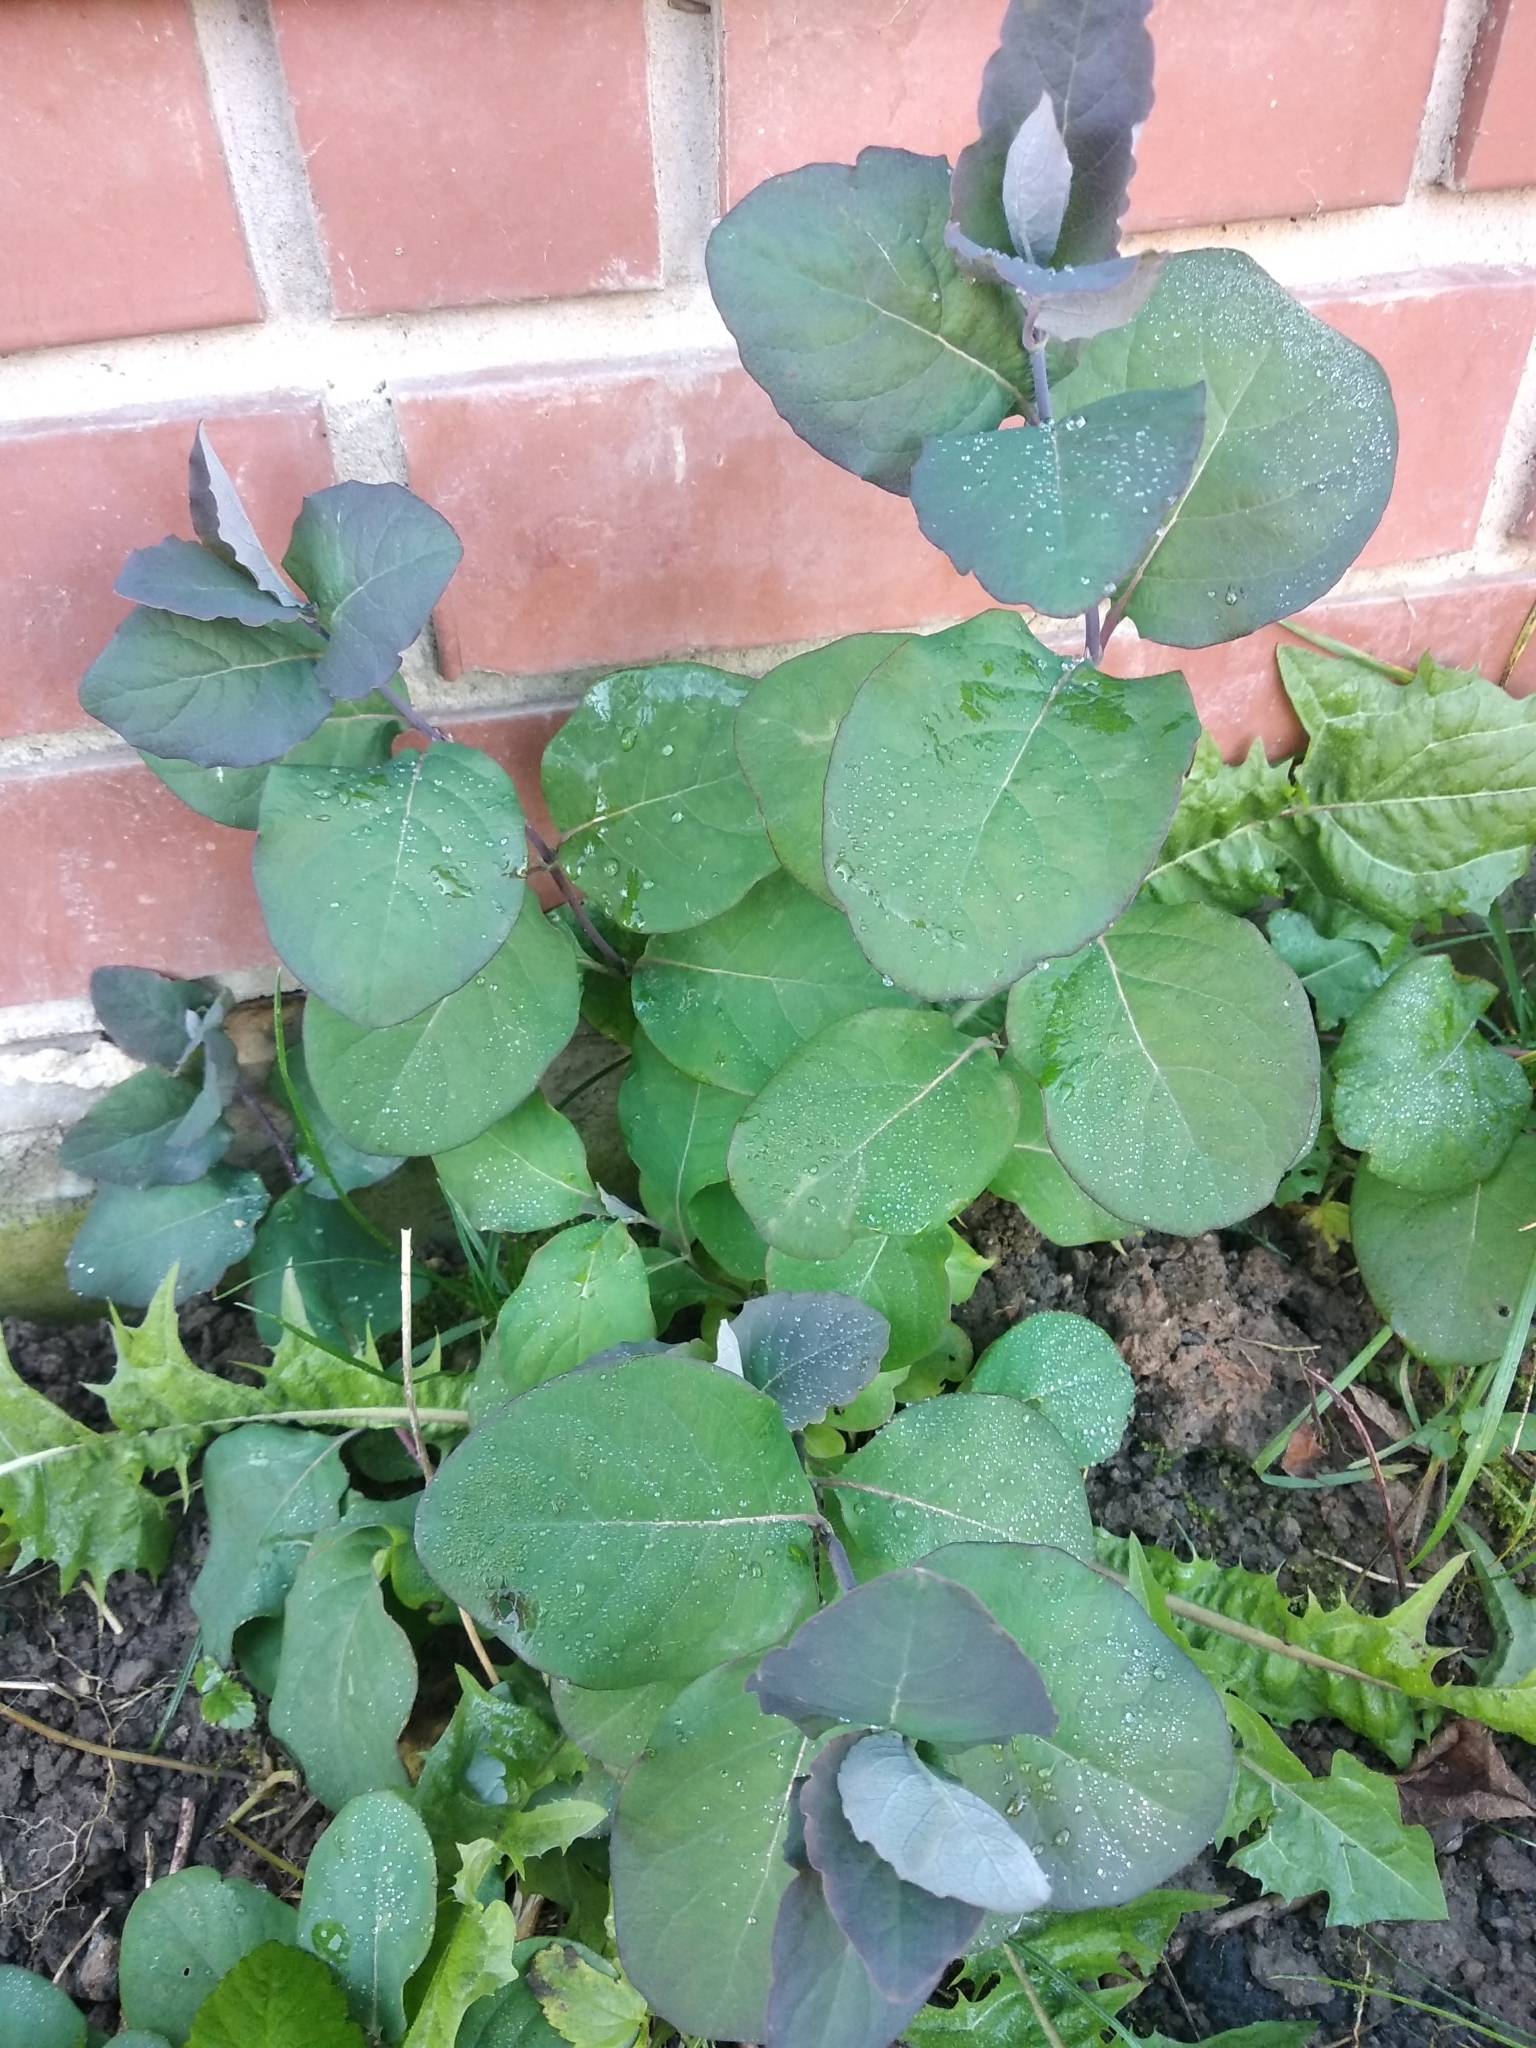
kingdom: Plantae
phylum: Tracheophyta
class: Magnoliopsida
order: Dipsacales
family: Caprifoliaceae
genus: Lonicera
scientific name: Lonicera caprifolium
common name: Perfoliate honeysuckle
